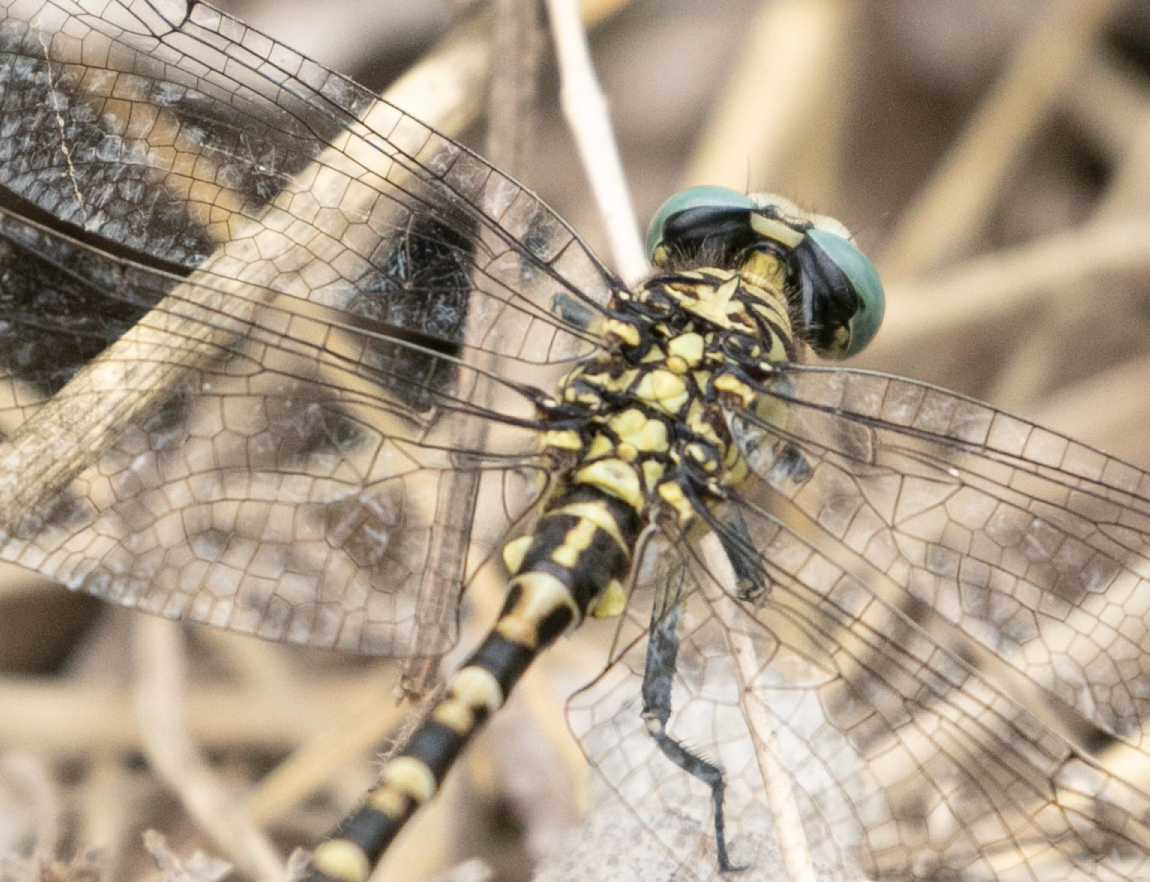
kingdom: Animalia
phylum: Arthropoda
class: Insecta
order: Odonata
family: Gomphidae
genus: Onychogomphus
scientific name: Onychogomphus forcipatus
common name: Small pincertail
